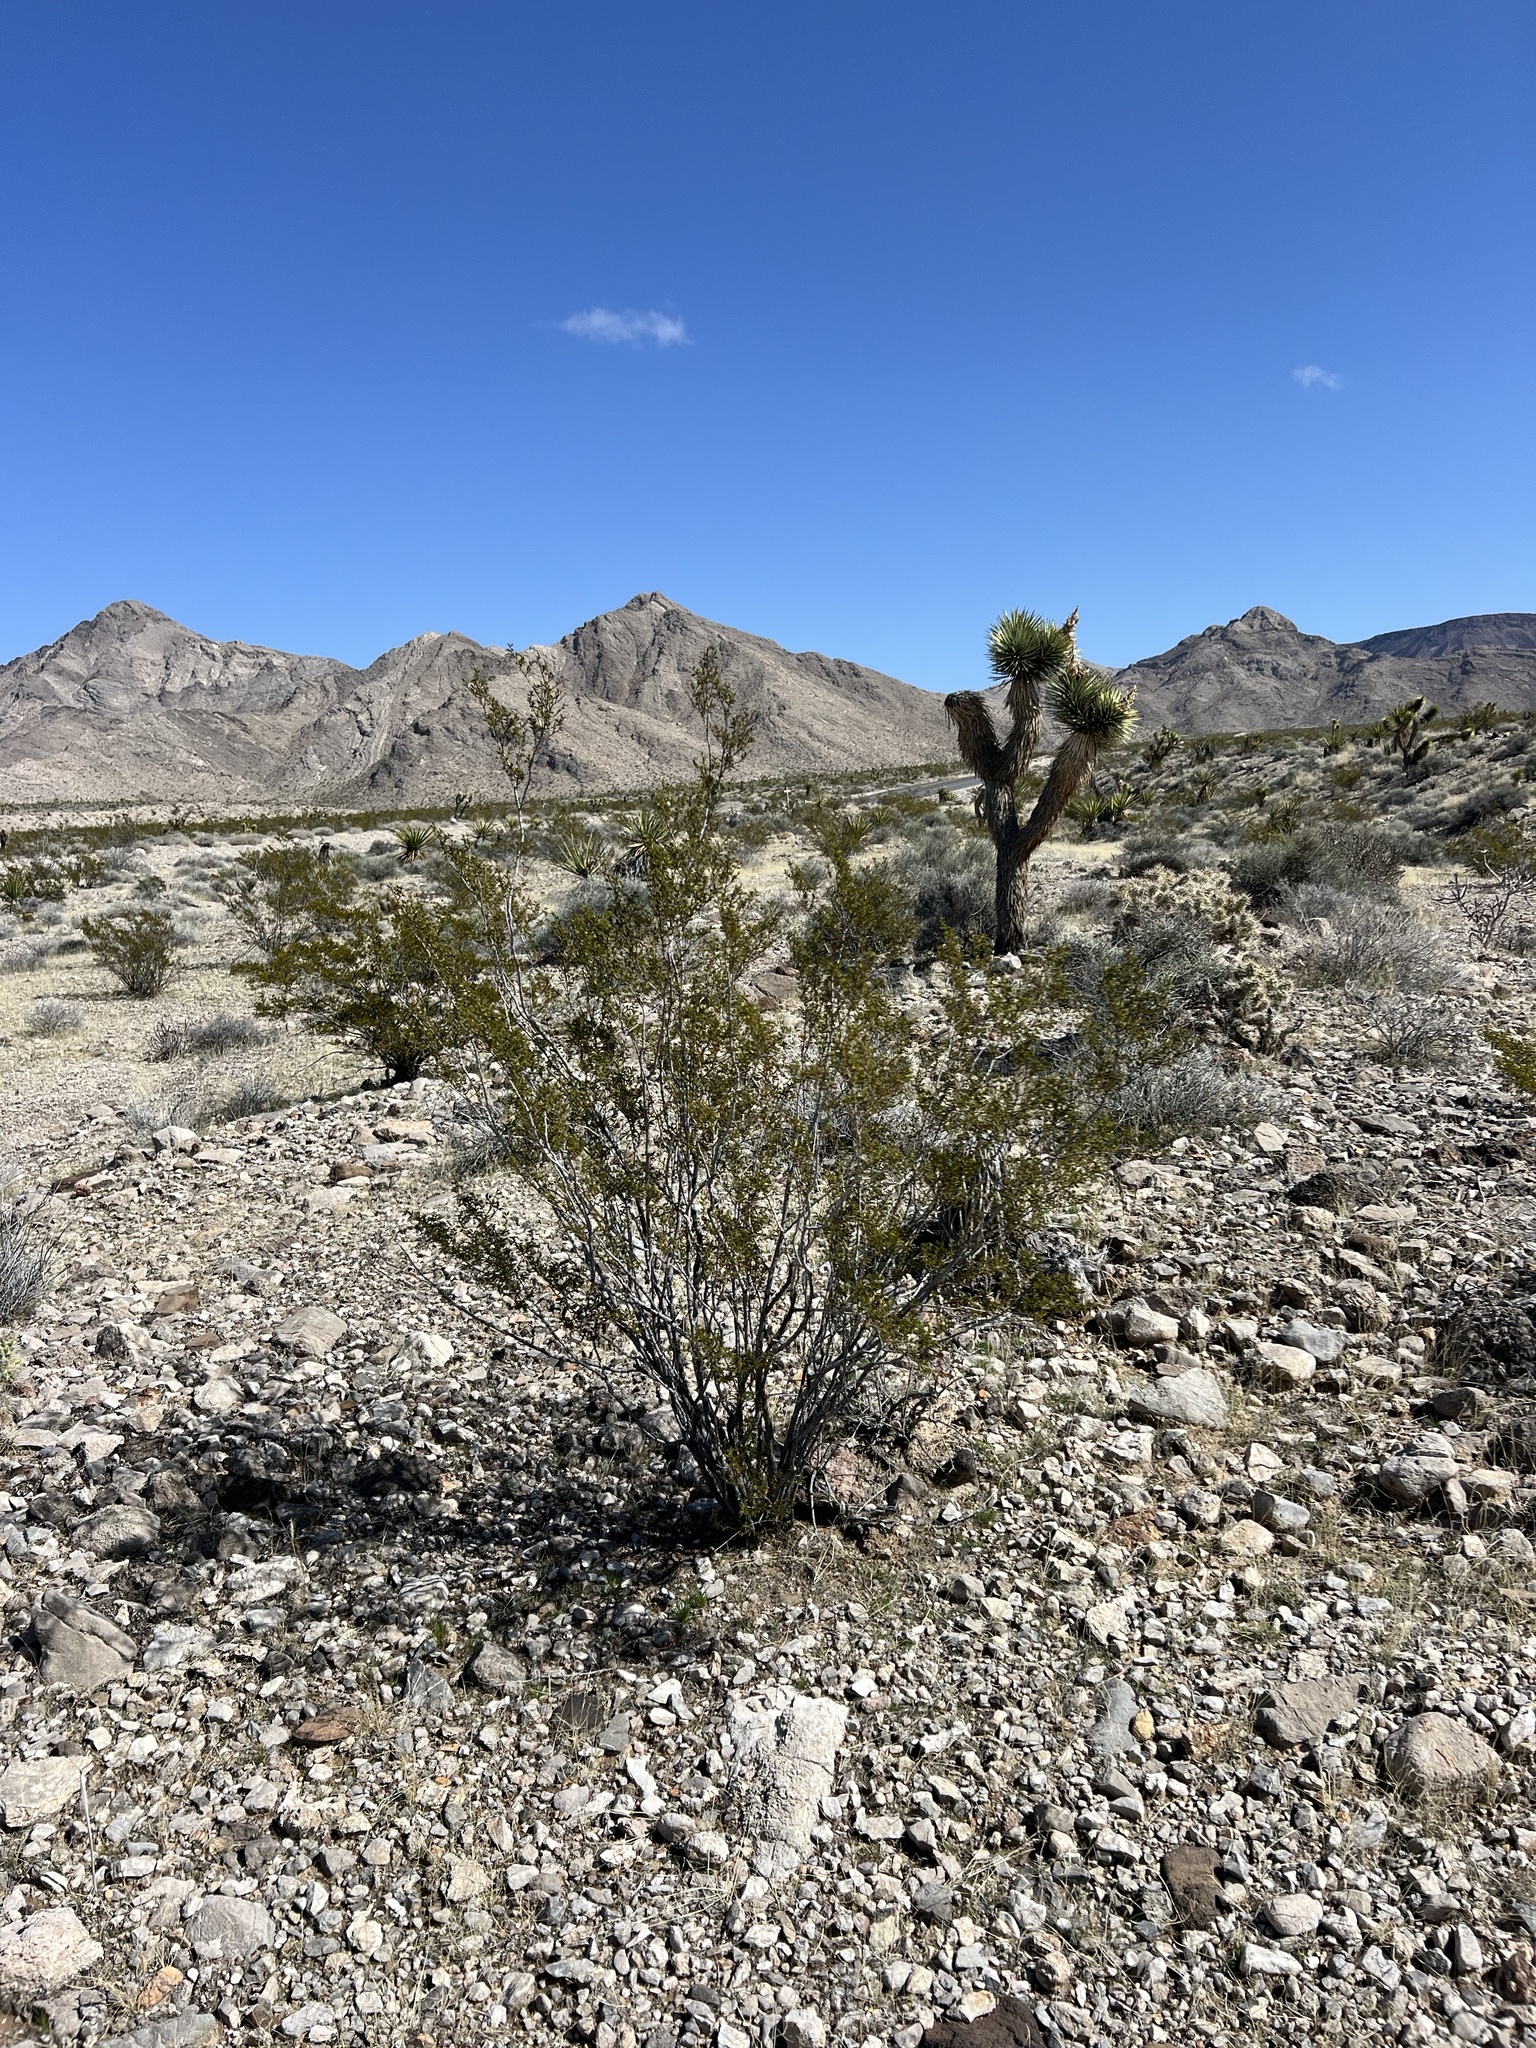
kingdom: Plantae
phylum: Tracheophyta
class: Magnoliopsida
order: Zygophyllales
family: Zygophyllaceae
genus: Larrea
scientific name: Larrea tridentata
